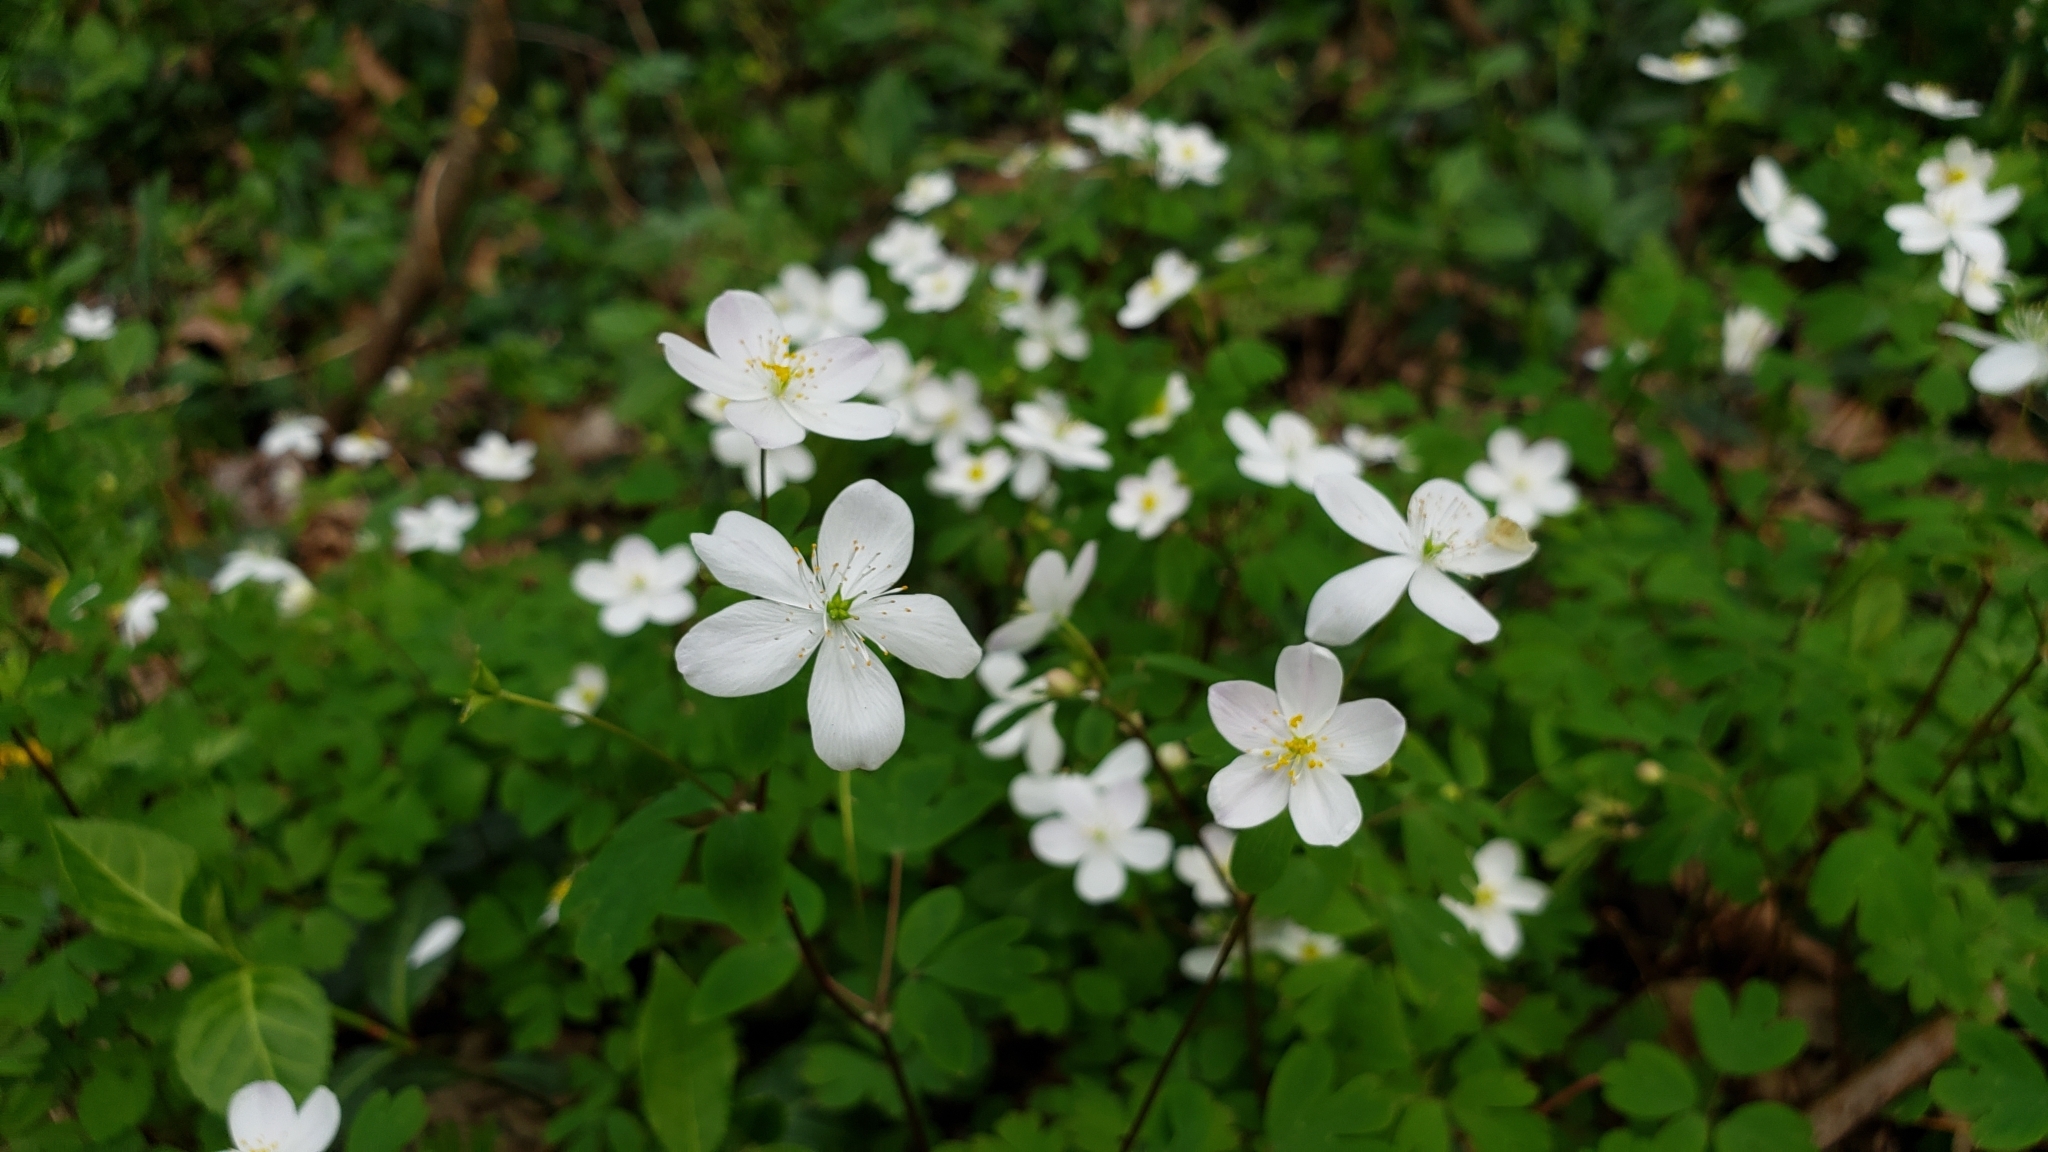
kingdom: Plantae
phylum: Tracheophyta
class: Magnoliopsida
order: Ranunculales
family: Ranunculaceae
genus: Enemion
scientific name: Enemion biternatum
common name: Eastern false rue-anemone
